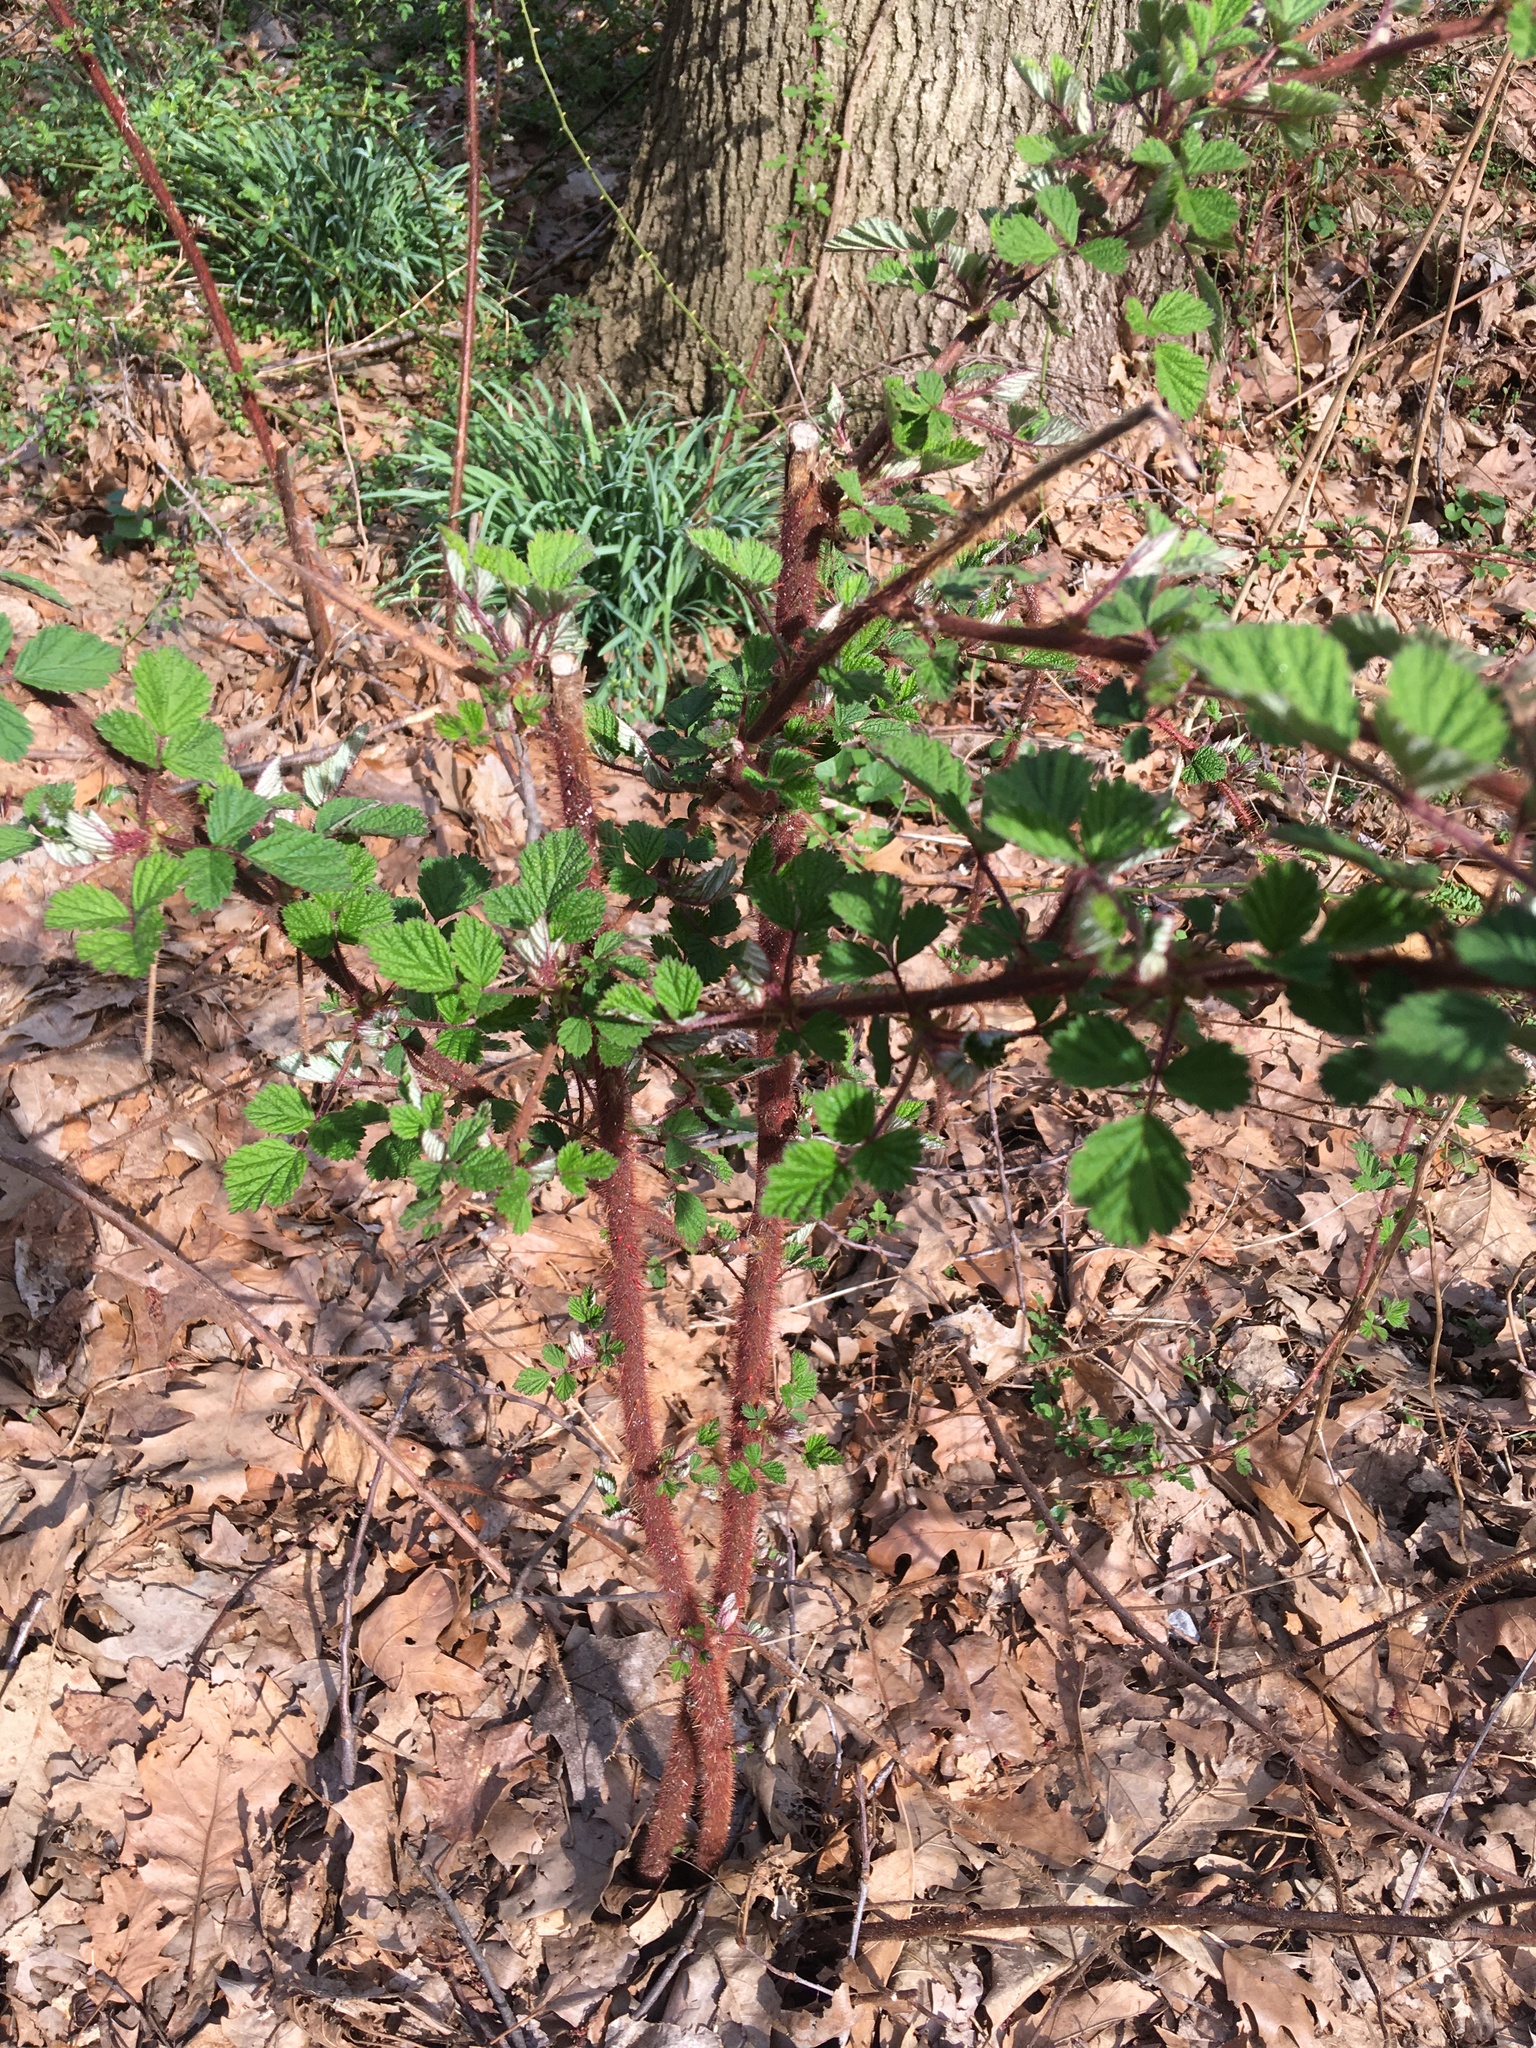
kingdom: Plantae
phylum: Tracheophyta
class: Magnoliopsida
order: Rosales
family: Rosaceae
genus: Rubus
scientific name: Rubus phoenicolasius
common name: Japanese wineberry
